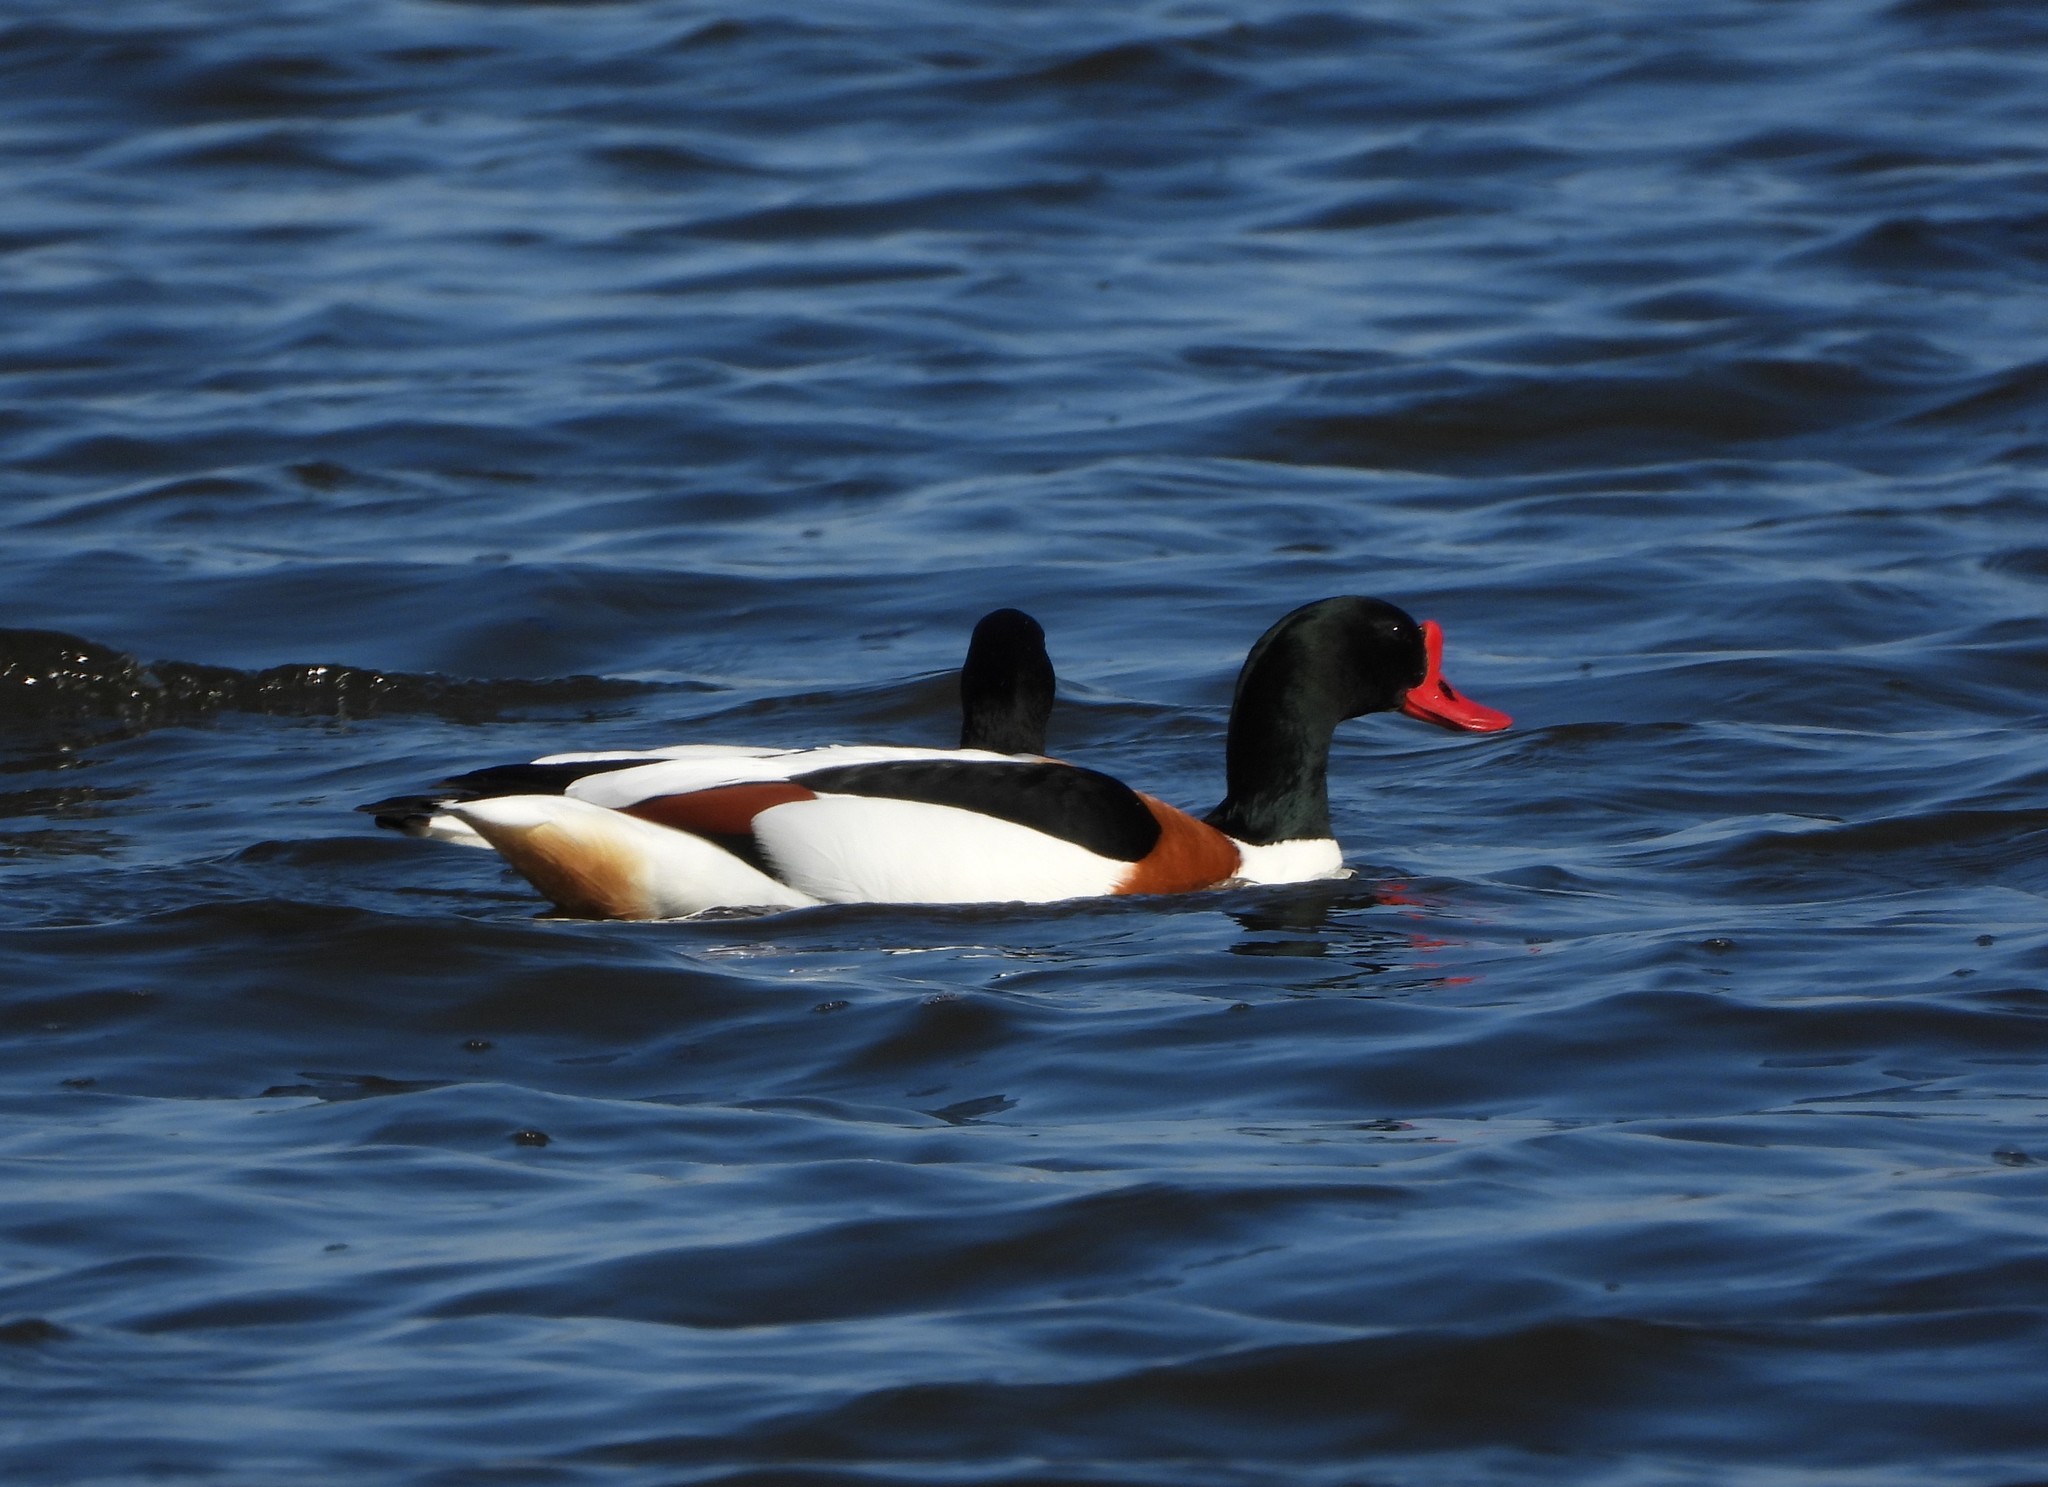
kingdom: Animalia
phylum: Chordata
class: Aves
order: Anseriformes
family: Anatidae
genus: Tadorna
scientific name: Tadorna tadorna
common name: Common shelduck
